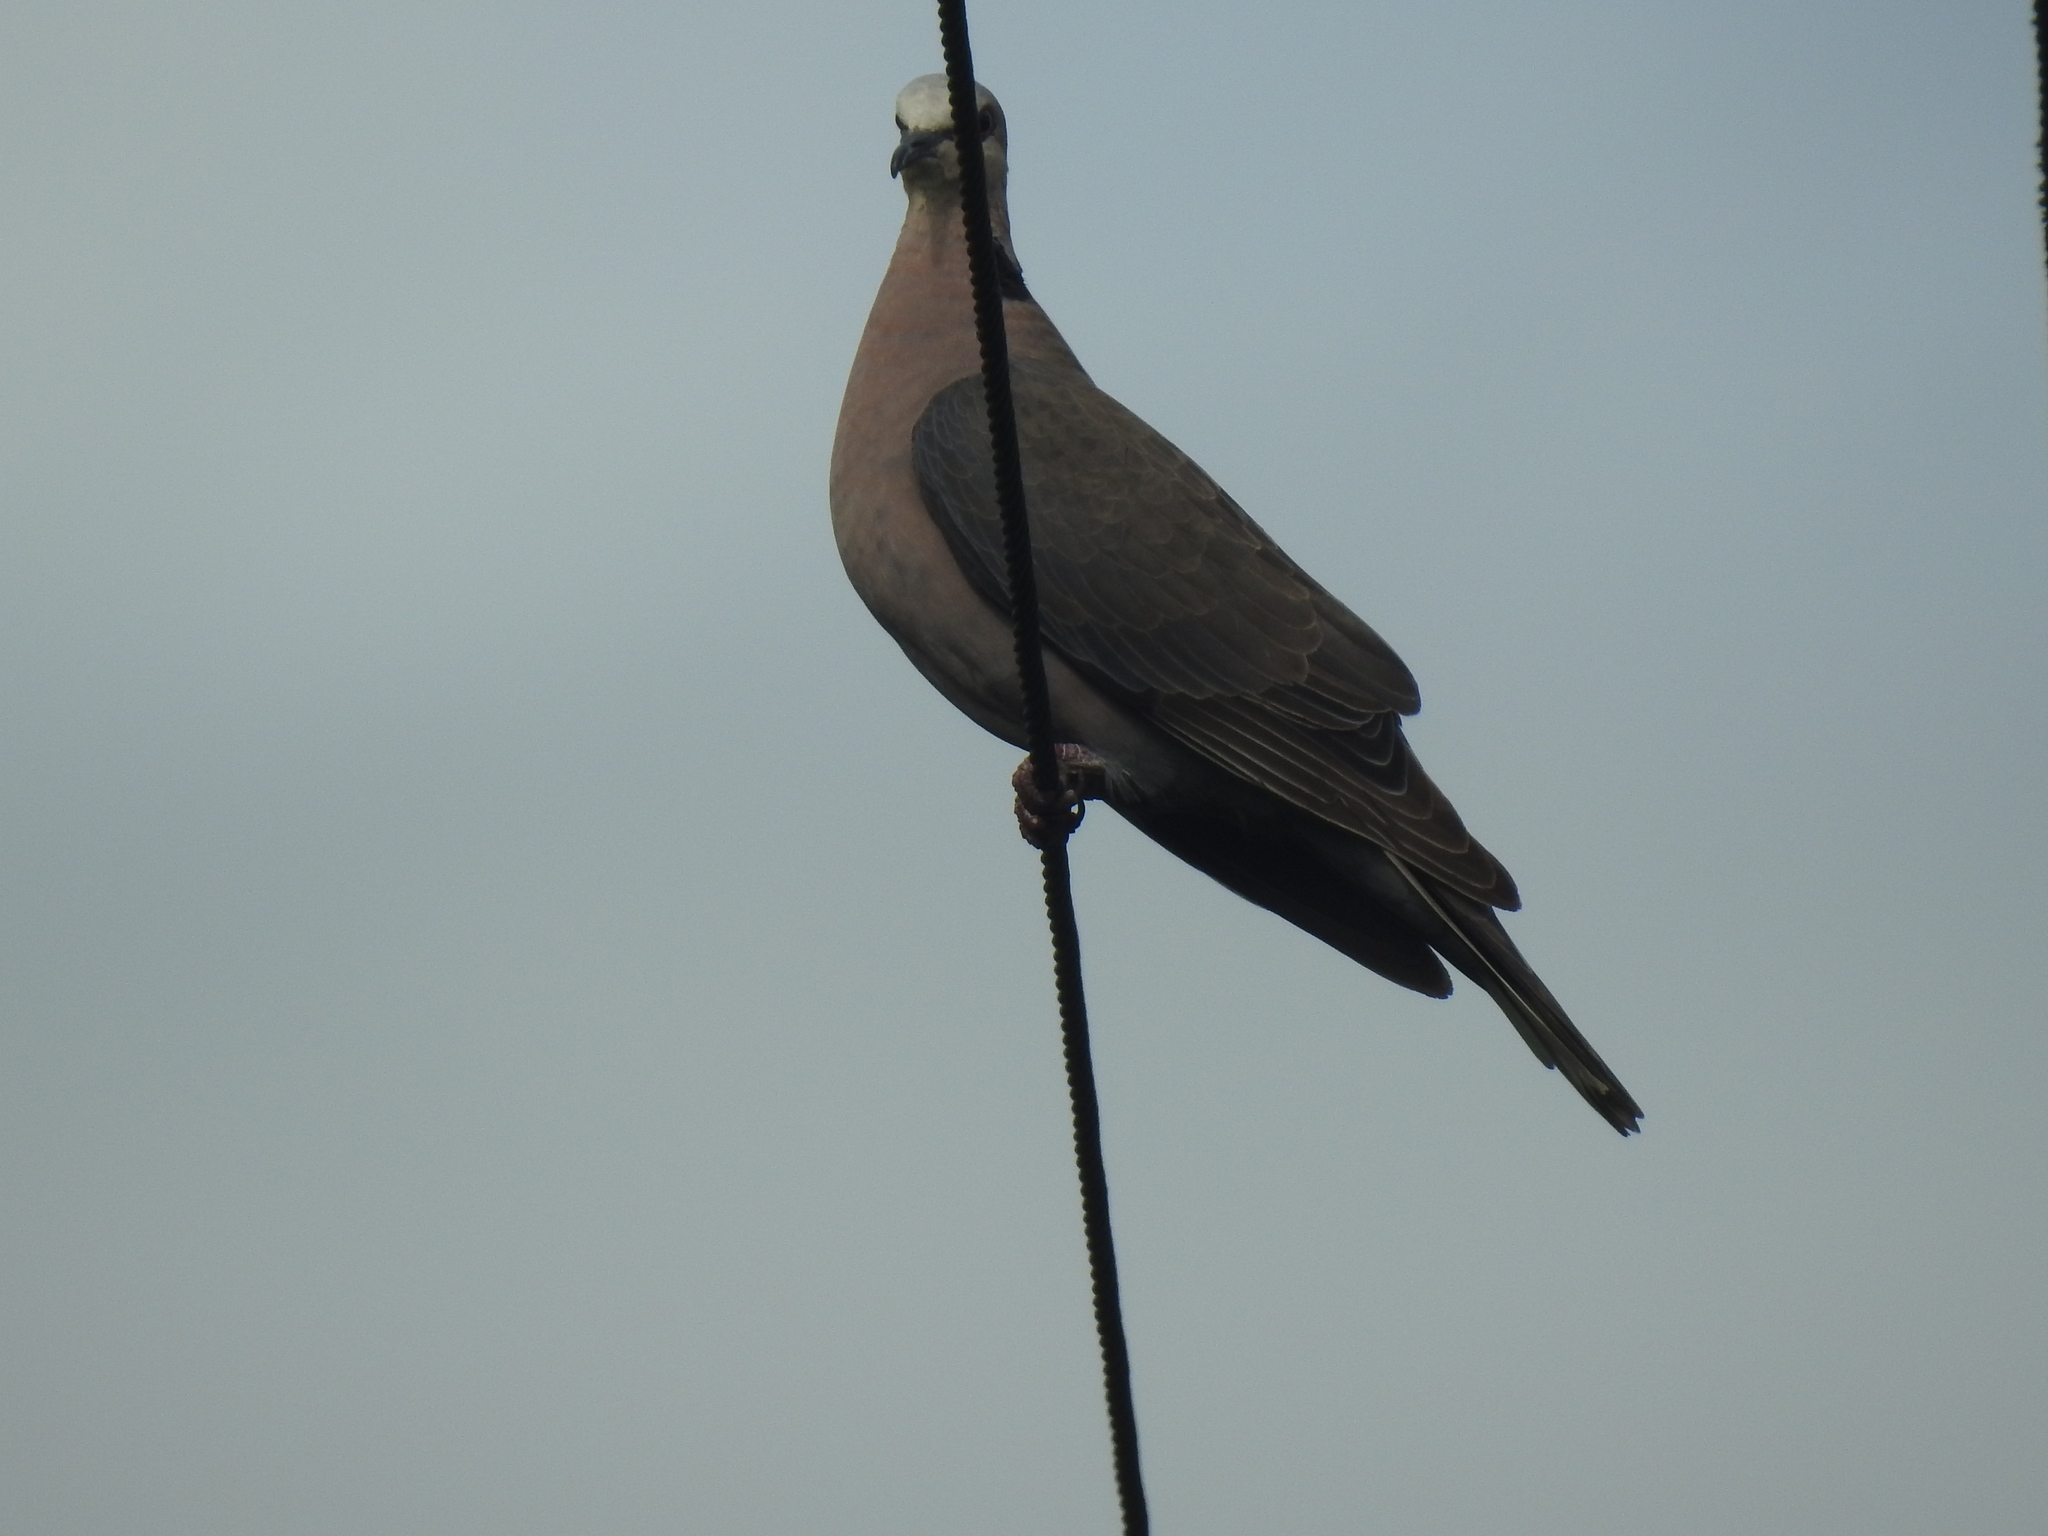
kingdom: Animalia
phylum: Chordata
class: Aves
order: Columbiformes
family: Columbidae
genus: Streptopelia
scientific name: Streptopelia semitorquata
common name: Red-eyed dove
